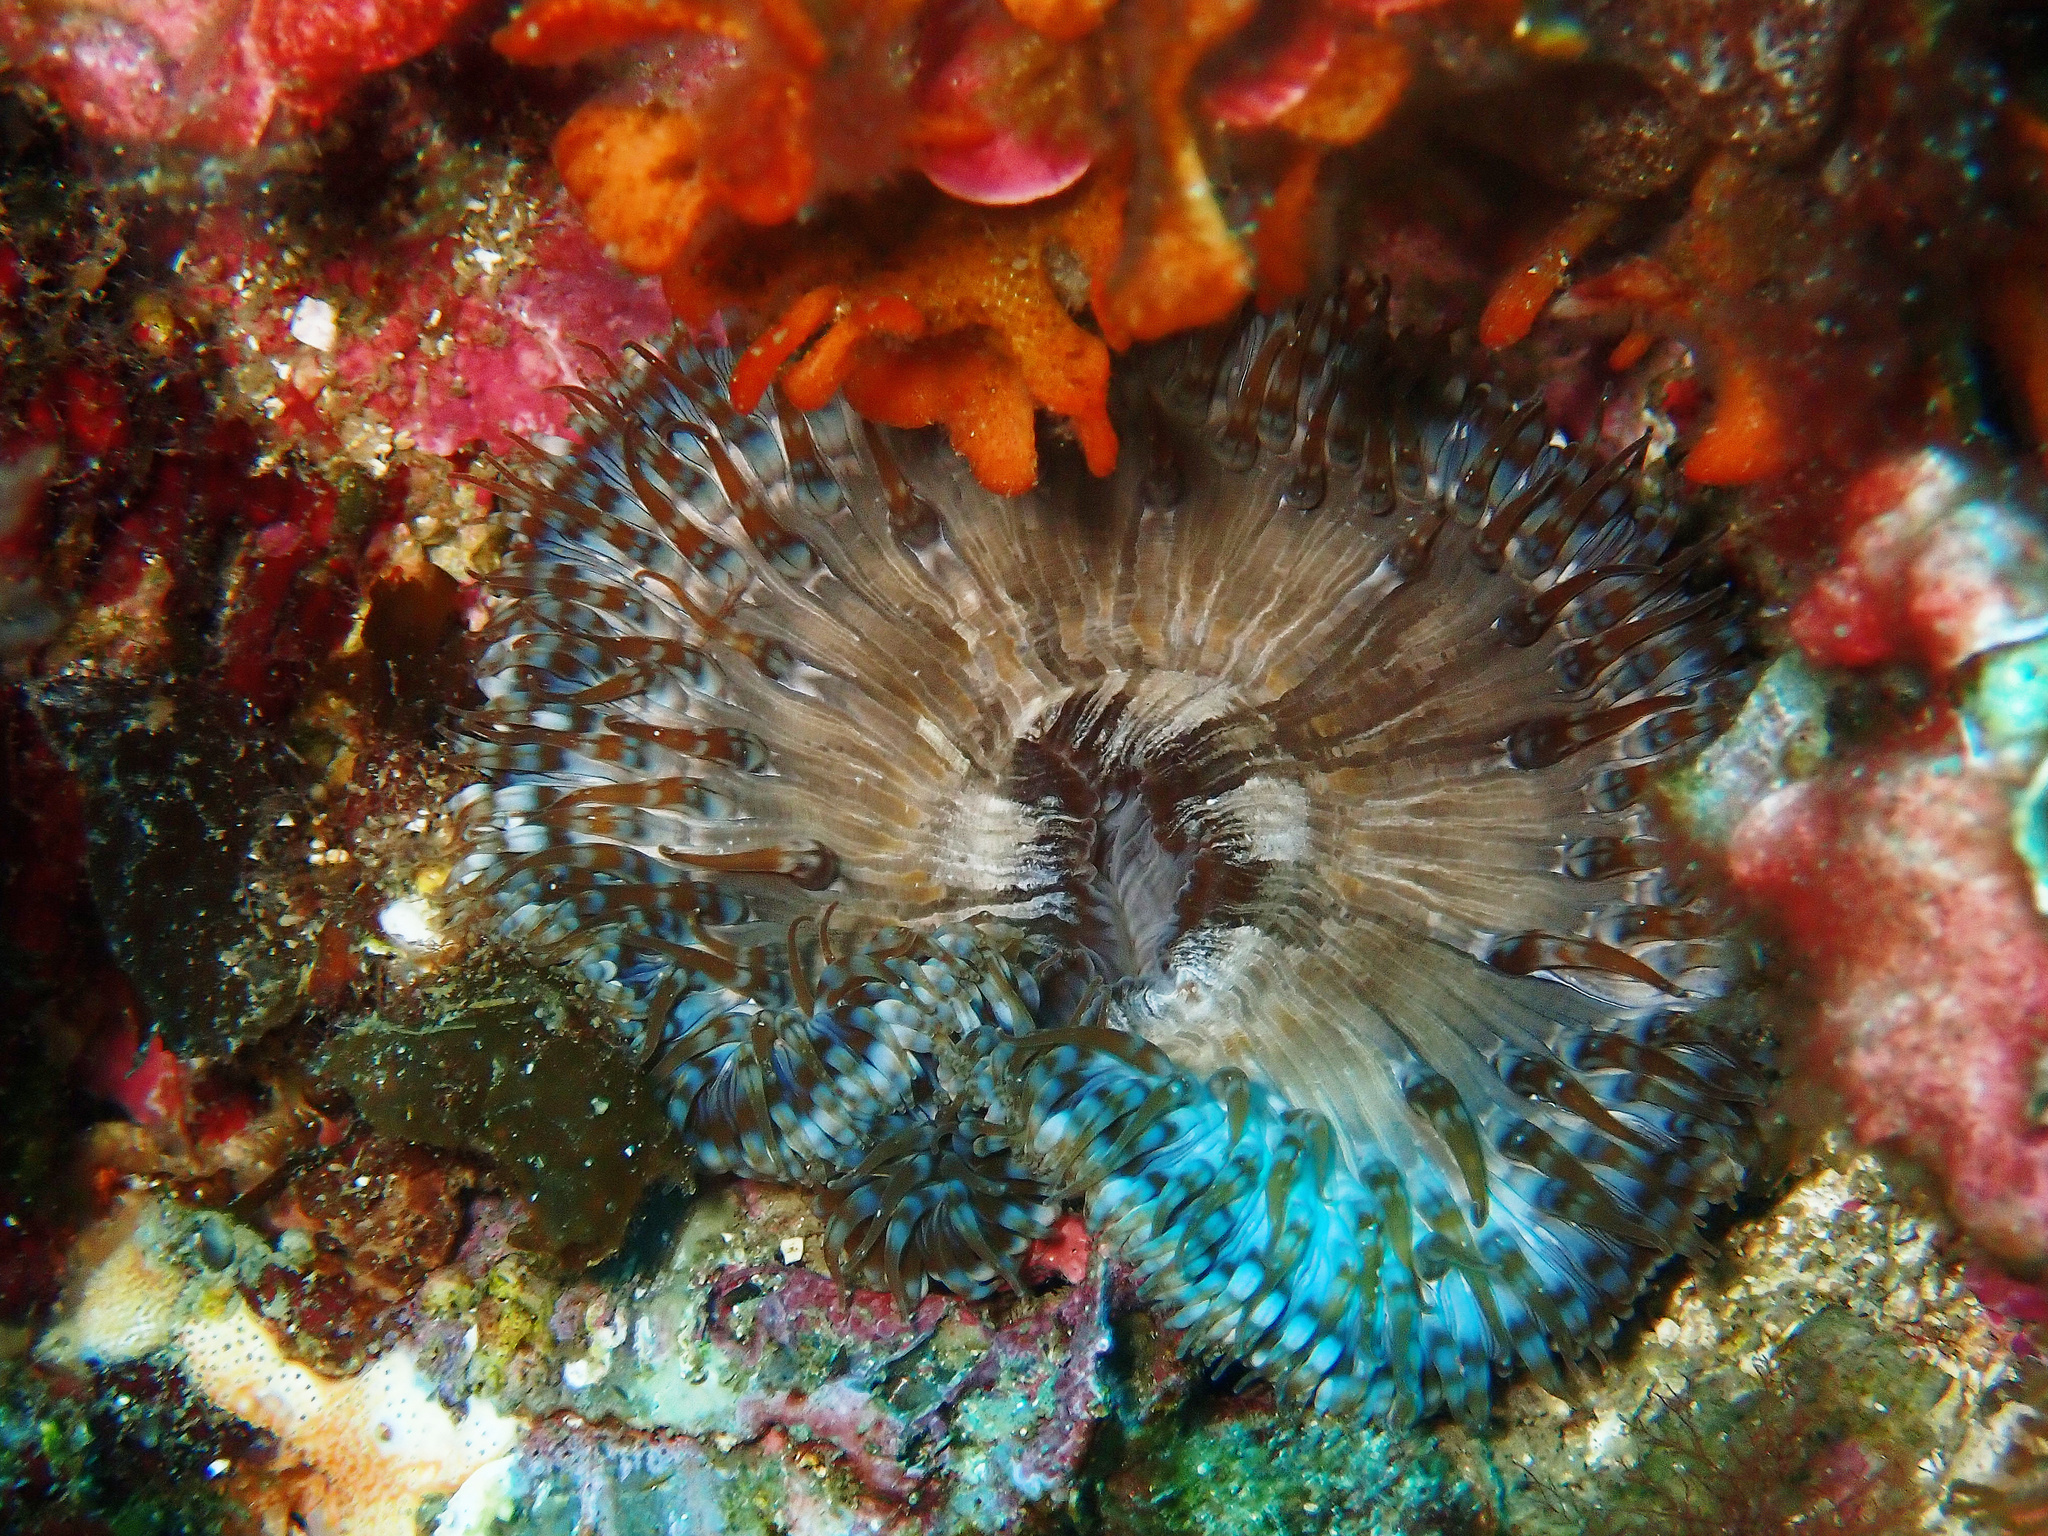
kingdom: Animalia
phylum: Cnidaria
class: Anthozoa
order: Actiniaria
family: Sagartiidae
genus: Cereus
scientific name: Cereus pedunculatus
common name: Daisy anemone
